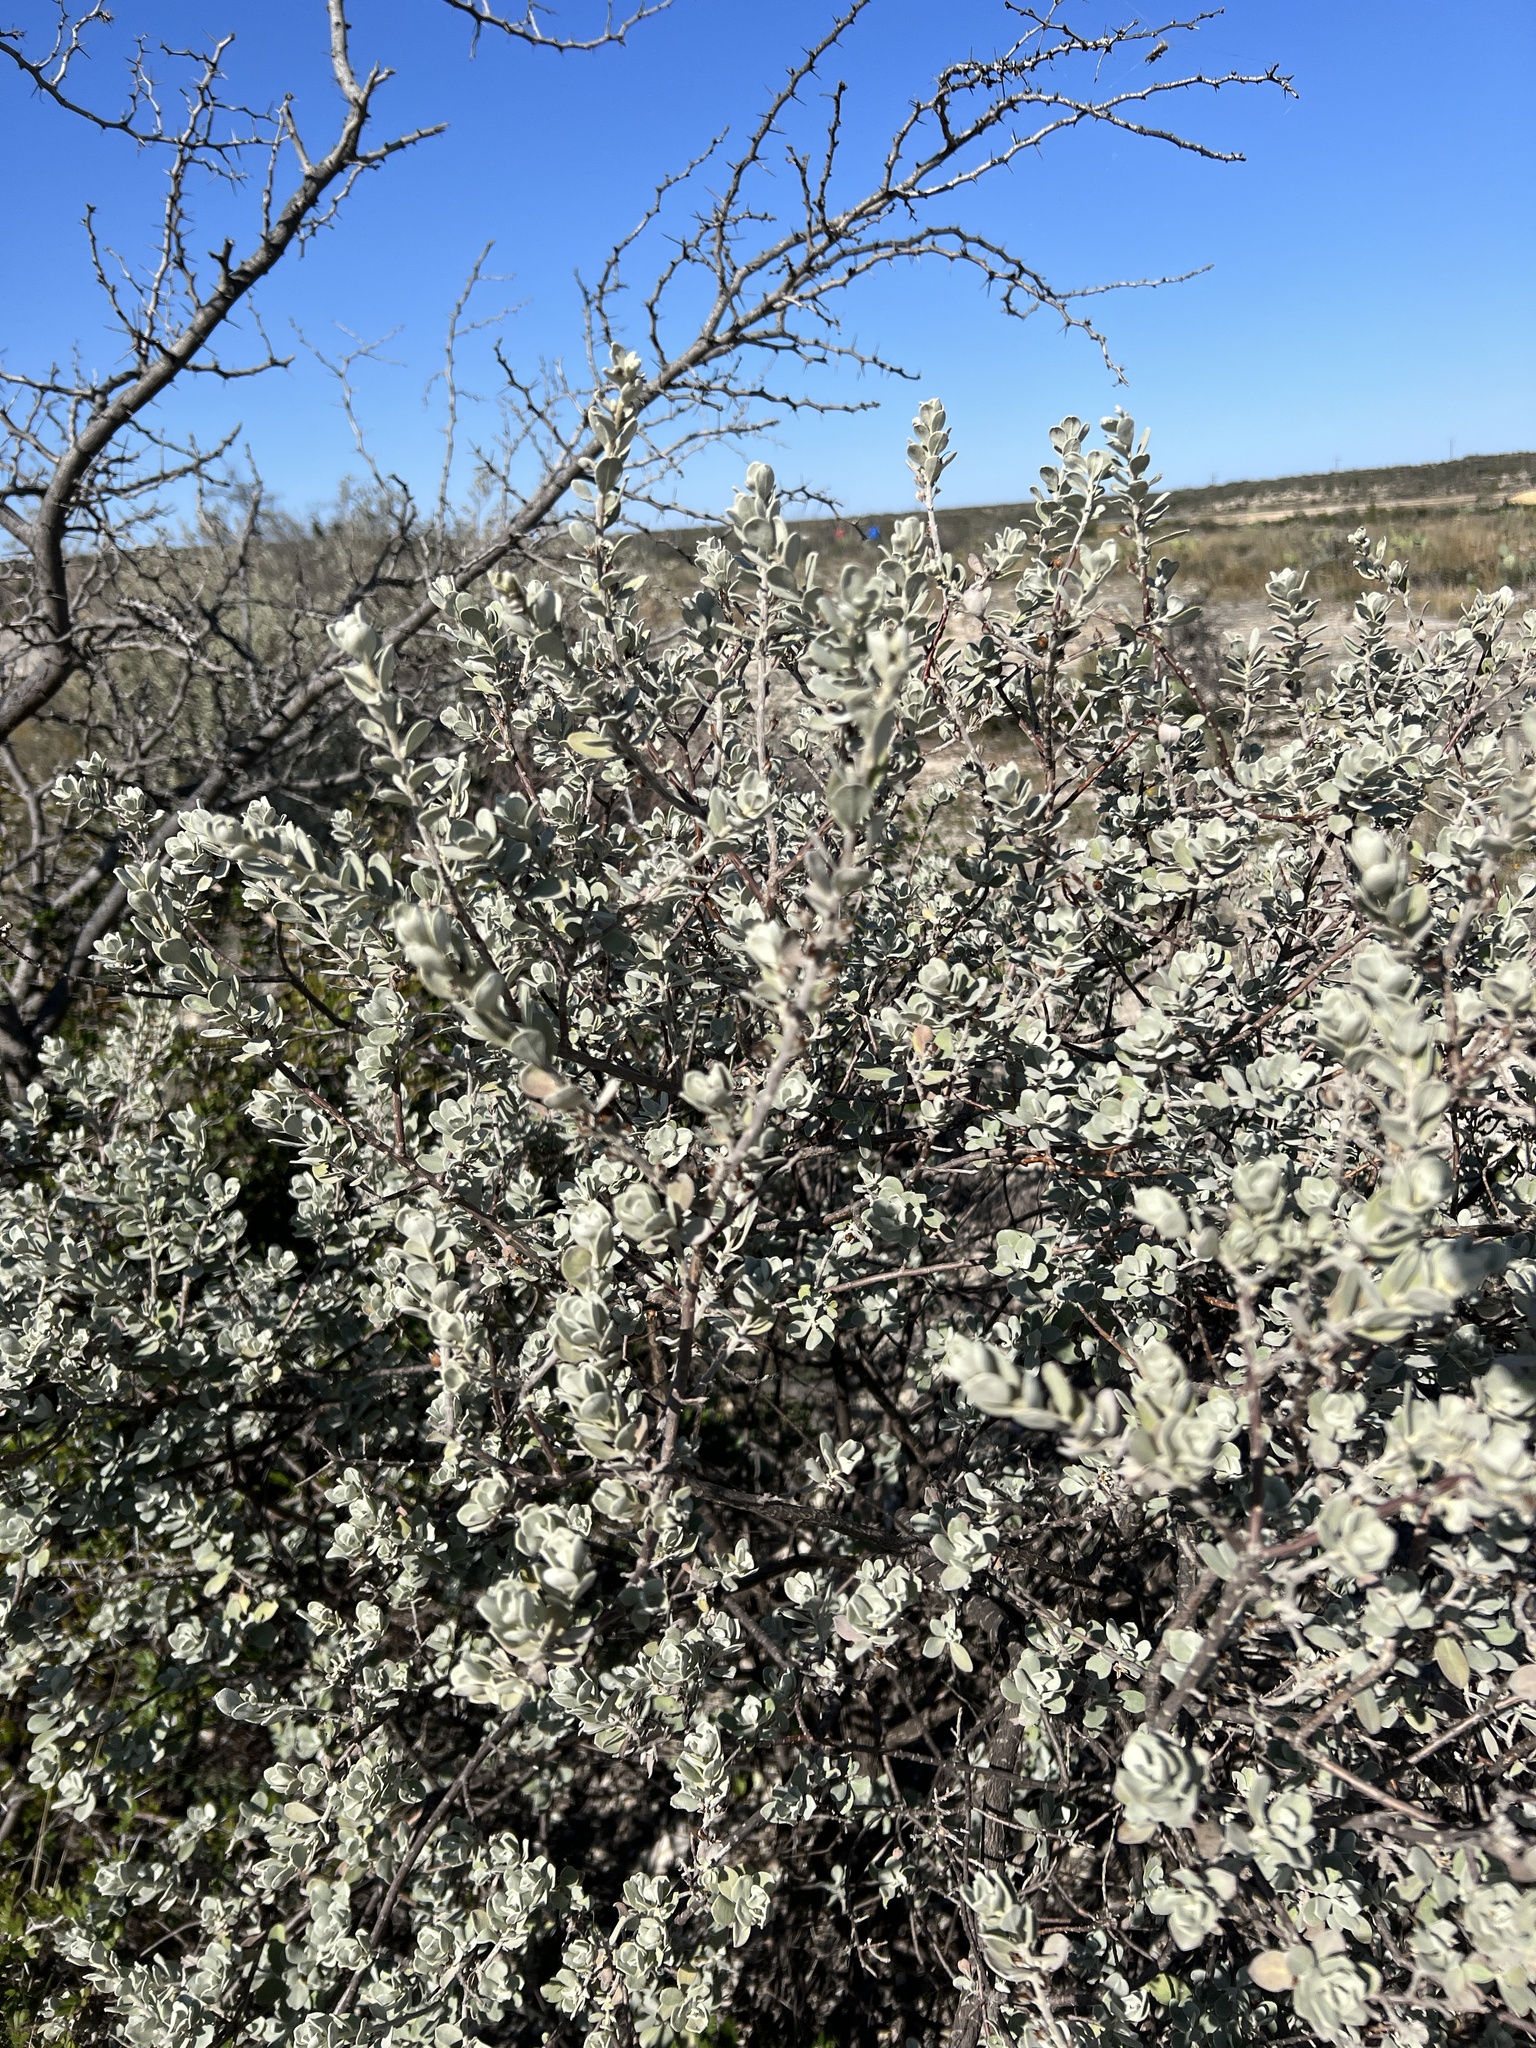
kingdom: Plantae
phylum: Tracheophyta
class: Magnoliopsida
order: Lamiales
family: Scrophulariaceae
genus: Leucophyllum
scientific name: Leucophyllum frutescens
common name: Texas silverleaf
